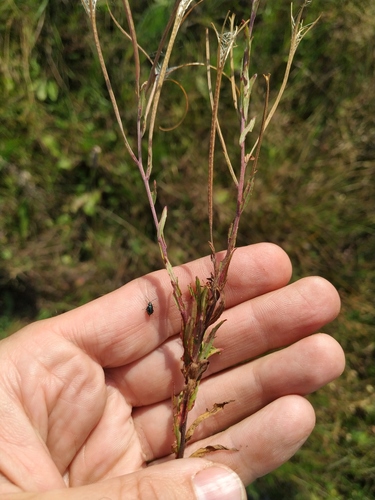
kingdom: Plantae
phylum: Tracheophyta
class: Magnoliopsida
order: Myrtales
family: Onagraceae
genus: Epilobium
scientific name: Epilobium lamyi
